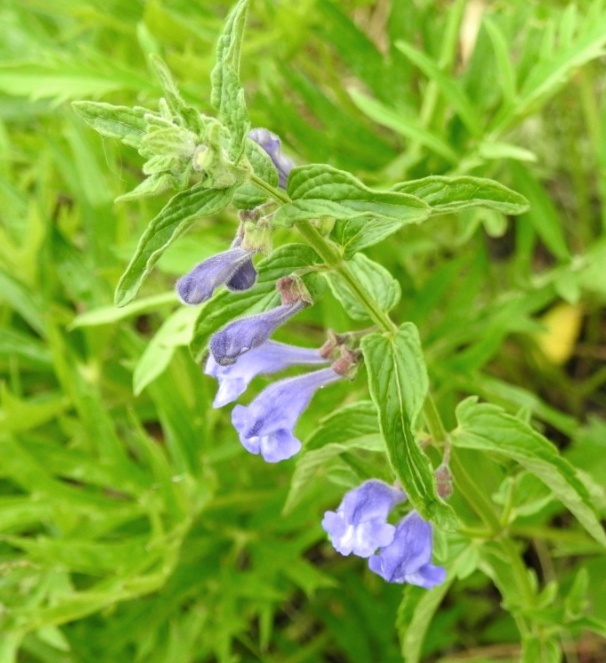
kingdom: Plantae
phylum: Tracheophyta
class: Magnoliopsida
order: Lamiales
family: Lamiaceae
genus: Scutellaria
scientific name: Scutellaria scordiifolia
